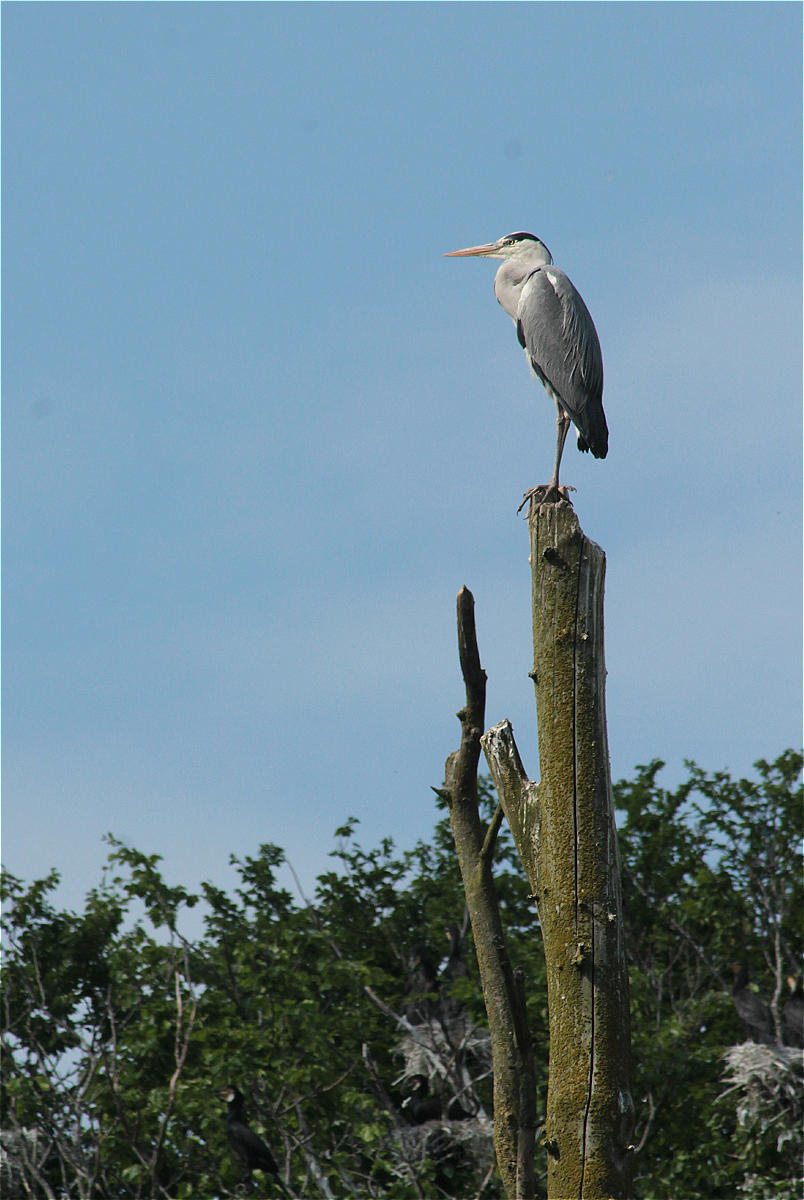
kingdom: Animalia
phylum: Chordata
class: Aves
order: Pelecaniformes
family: Ardeidae
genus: Ardea
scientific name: Ardea cinerea
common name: Grey heron
